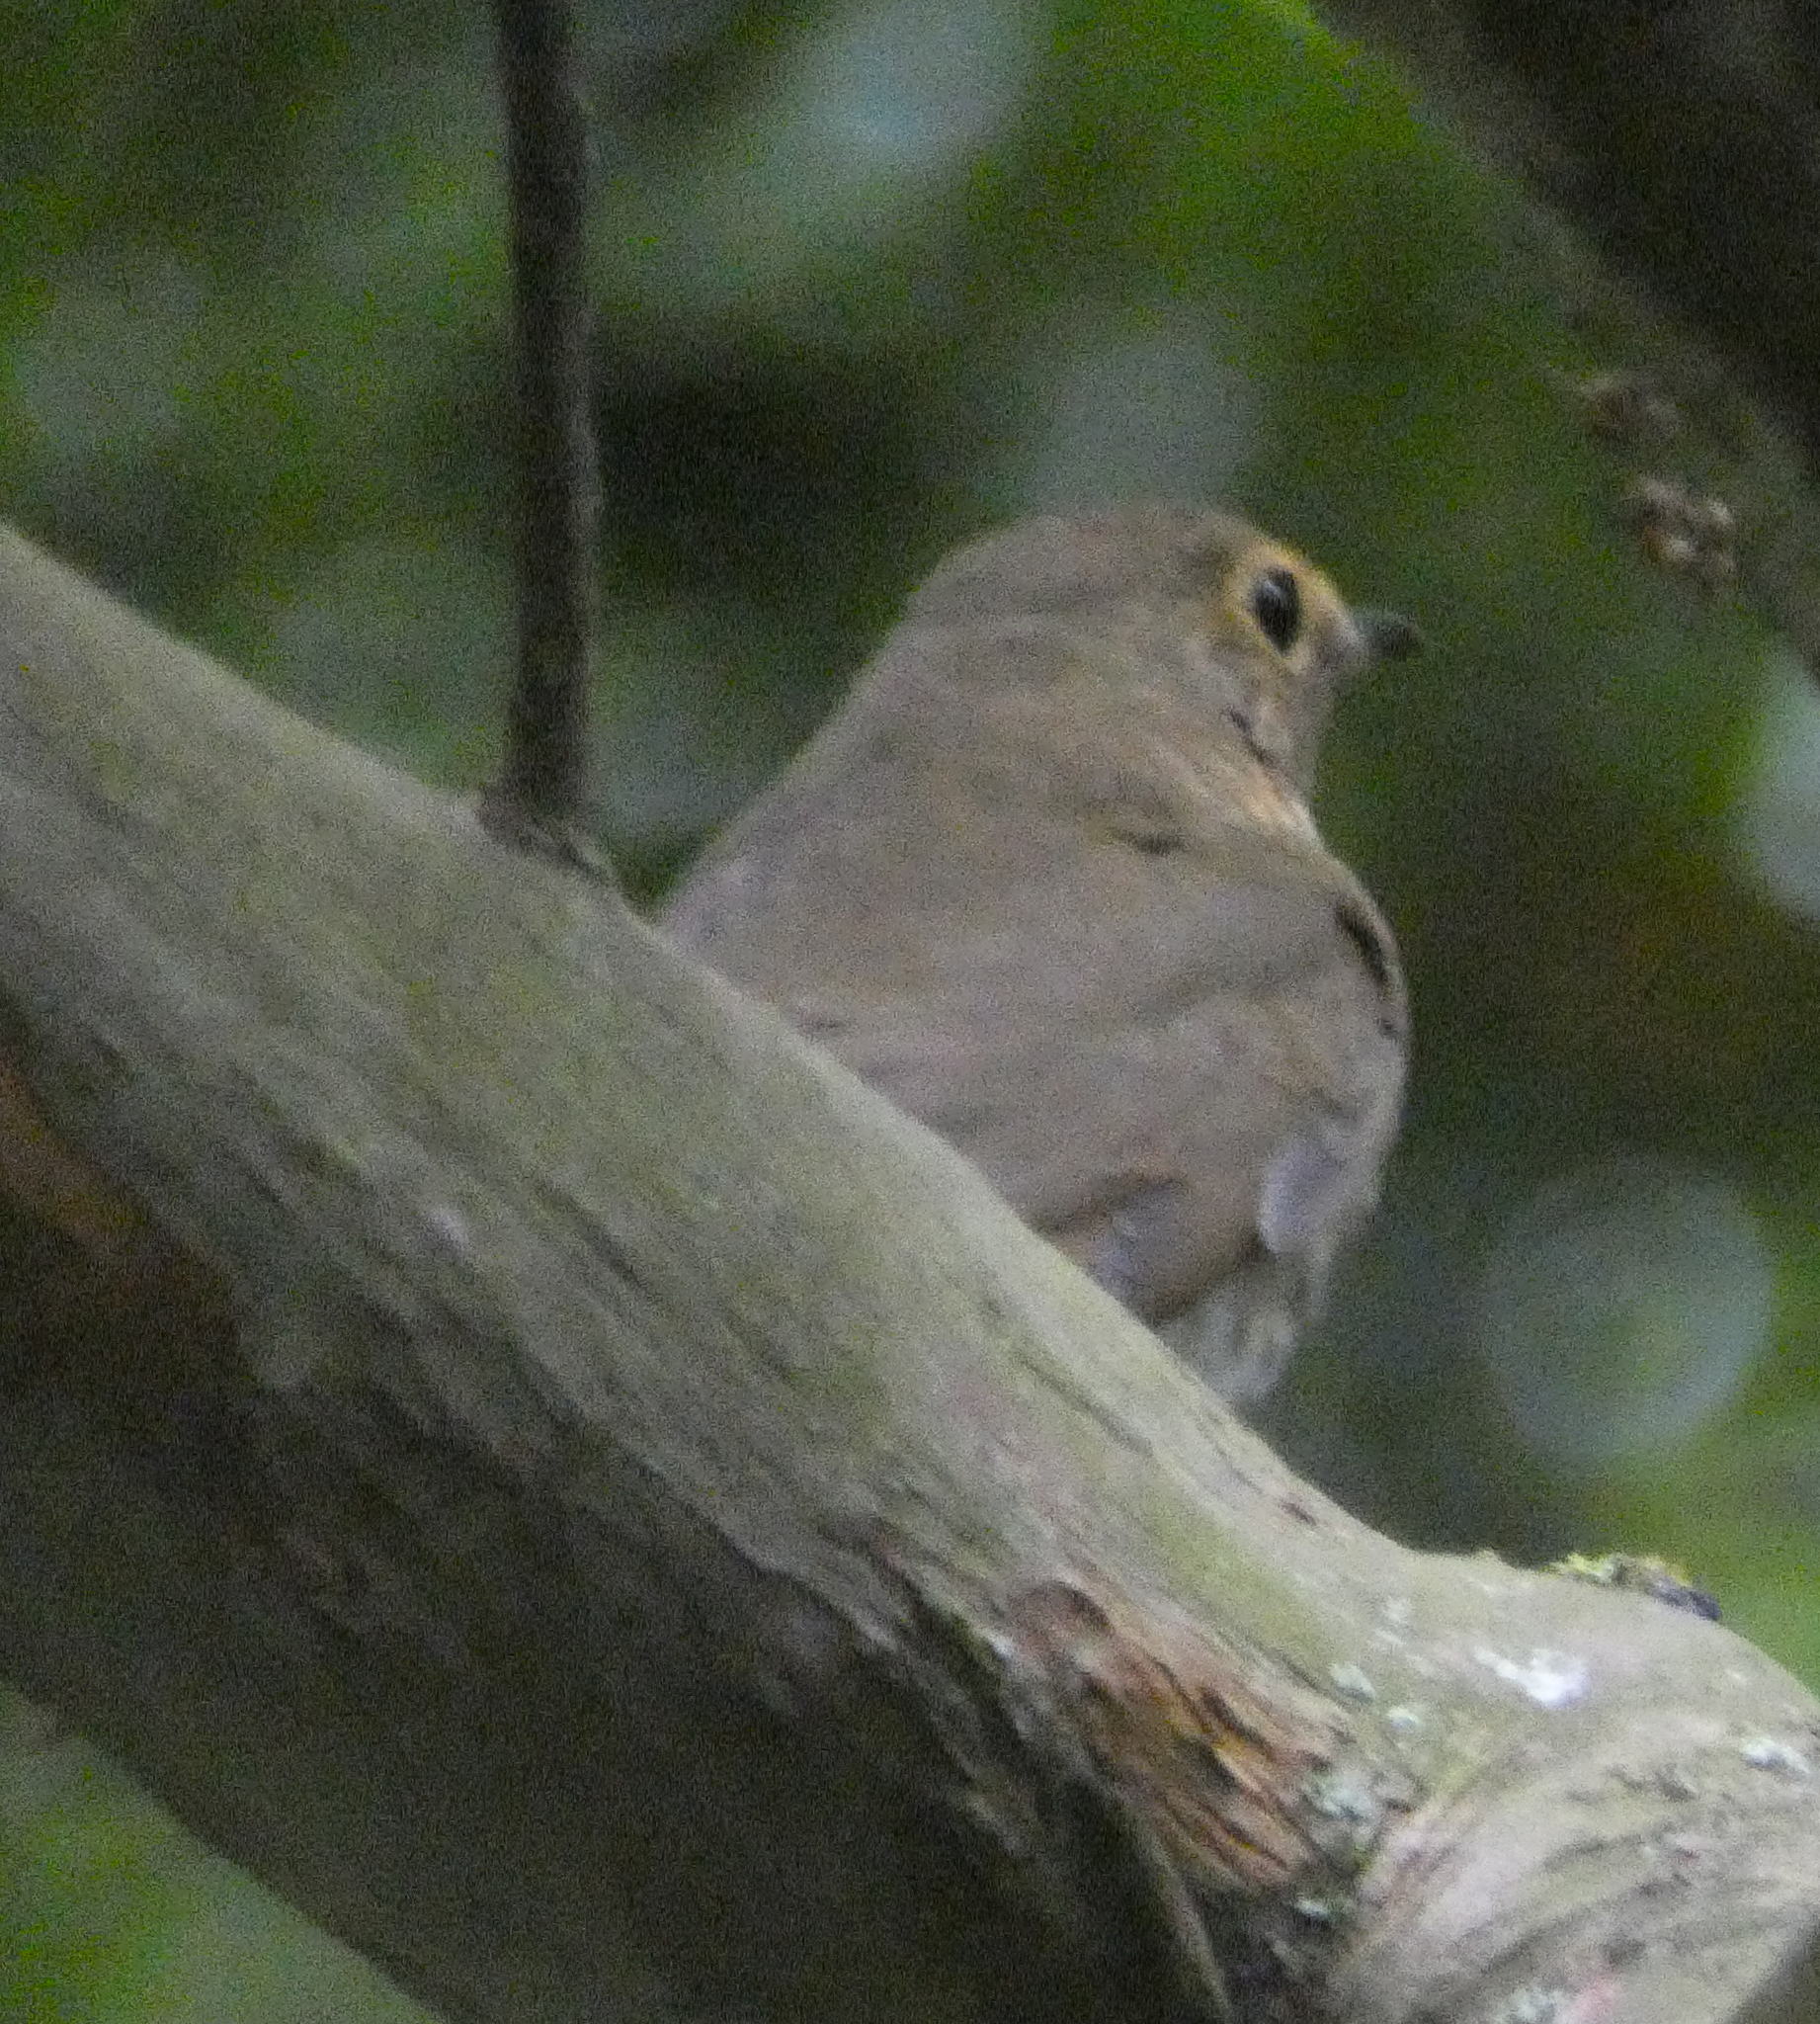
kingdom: Animalia
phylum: Chordata
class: Aves
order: Passeriformes
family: Turdidae
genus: Catharus
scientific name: Catharus ustulatus
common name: Swainson's thrush
